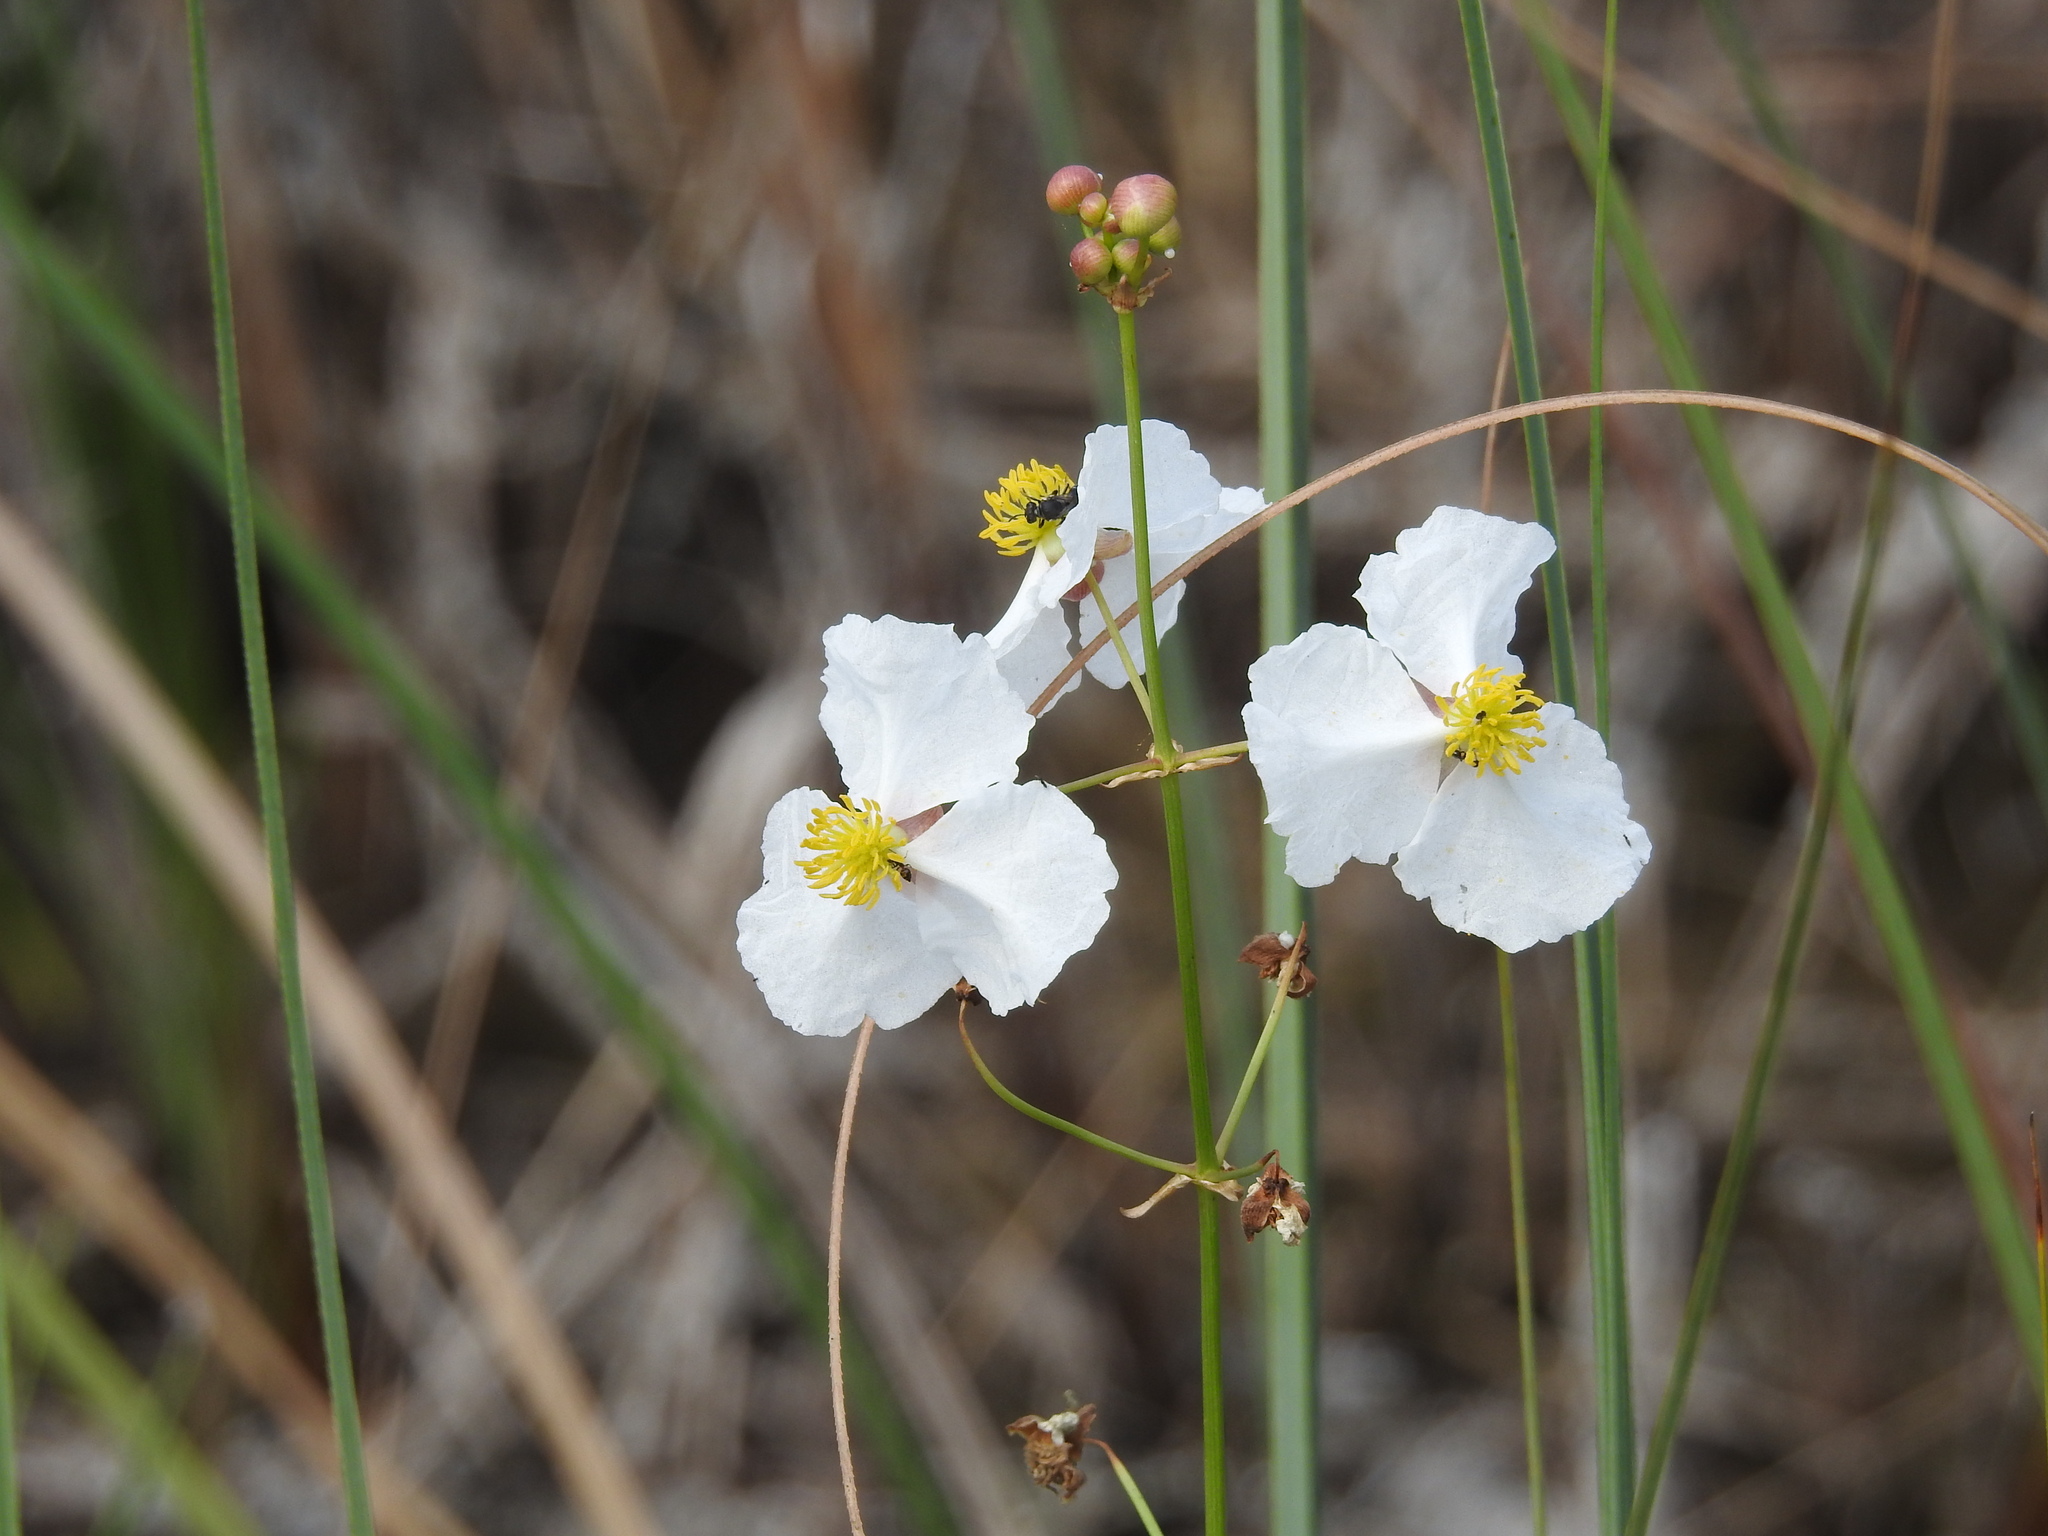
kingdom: Plantae
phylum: Tracheophyta
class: Liliopsida
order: Alismatales
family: Alismataceae
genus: Sagittaria
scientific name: Sagittaria lancifolia
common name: Lance-leaf arrowhead
